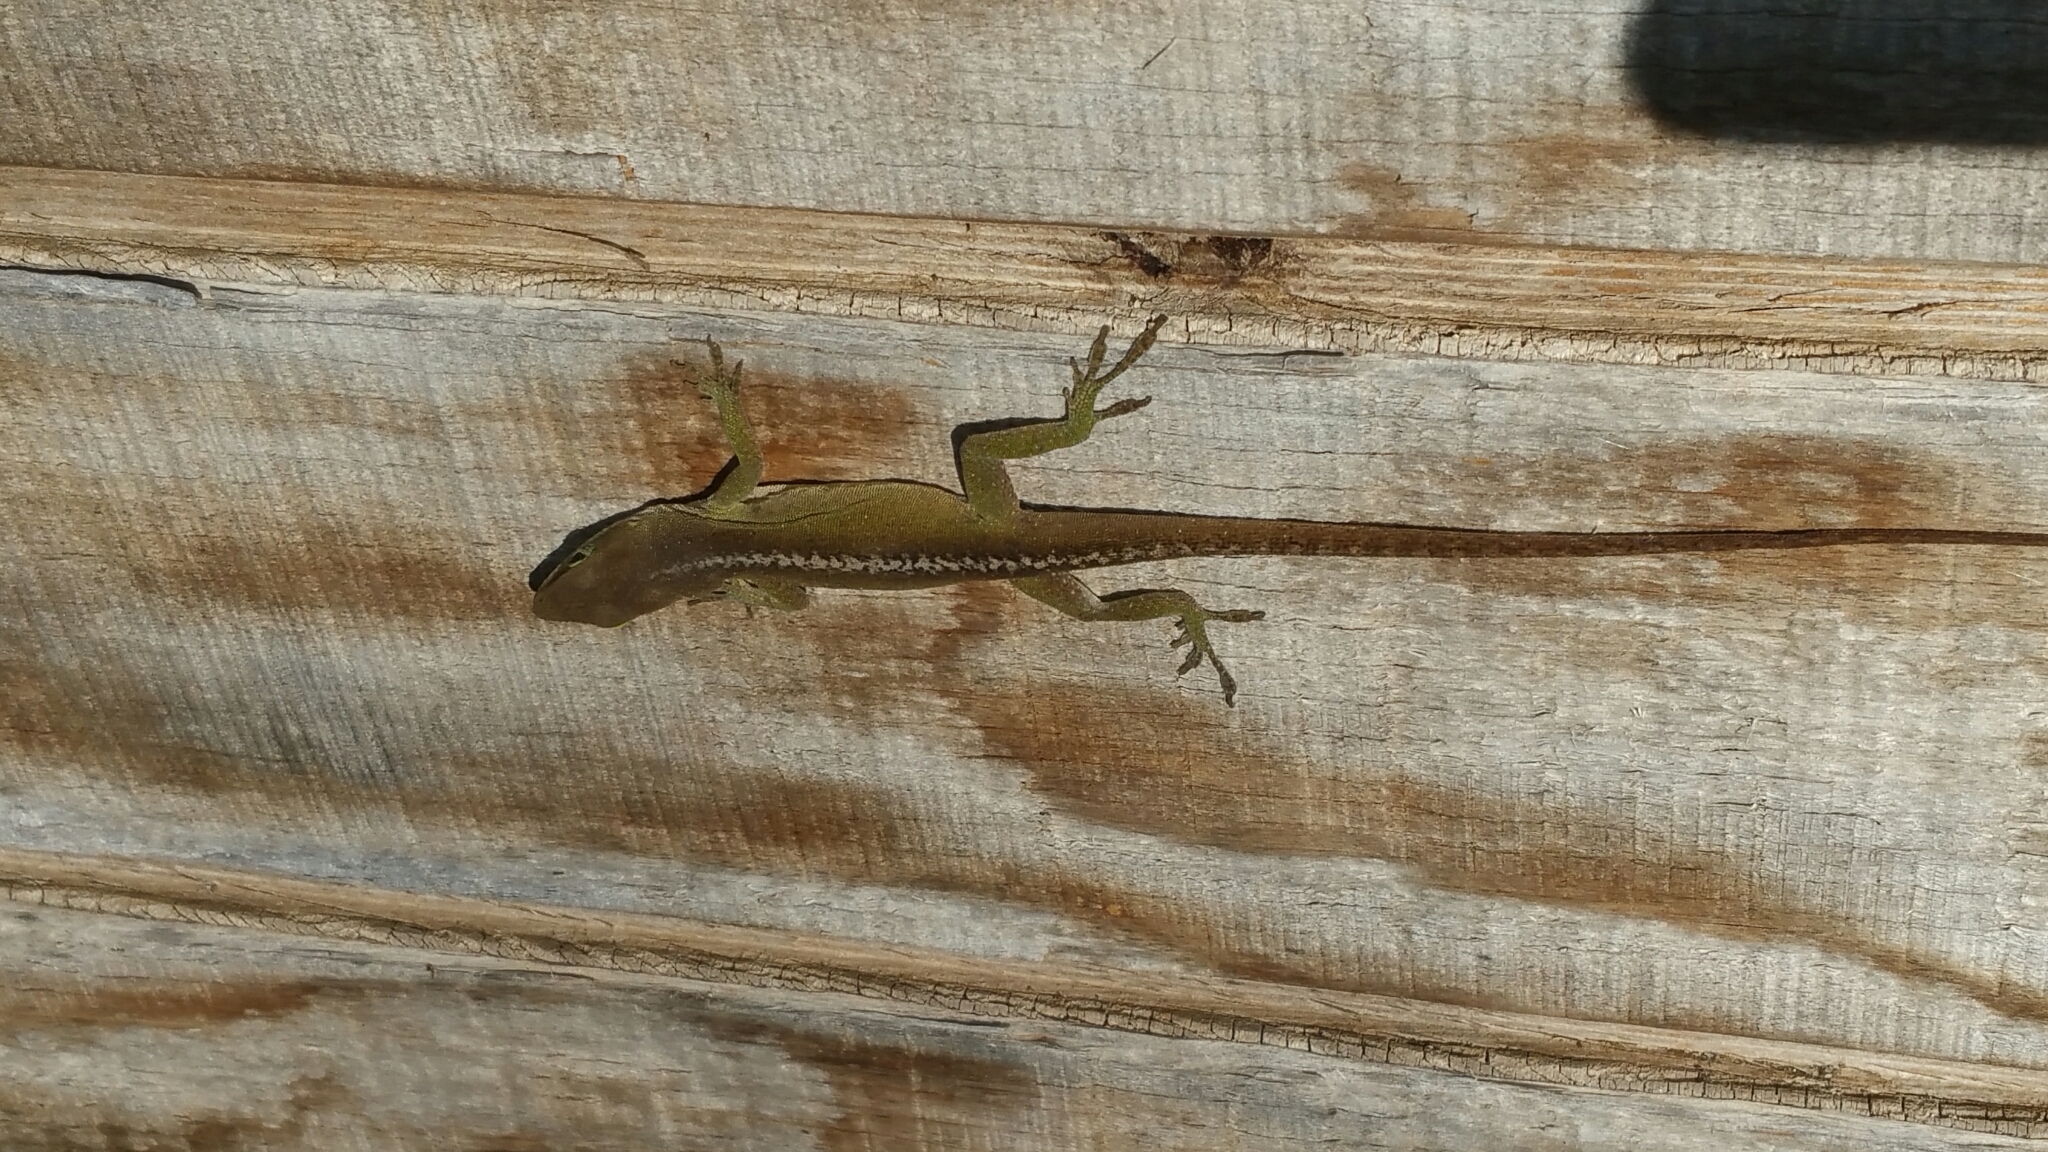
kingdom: Animalia
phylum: Chordata
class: Squamata
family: Dactyloidae
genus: Anolis
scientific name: Anolis carolinensis
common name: Green anole
